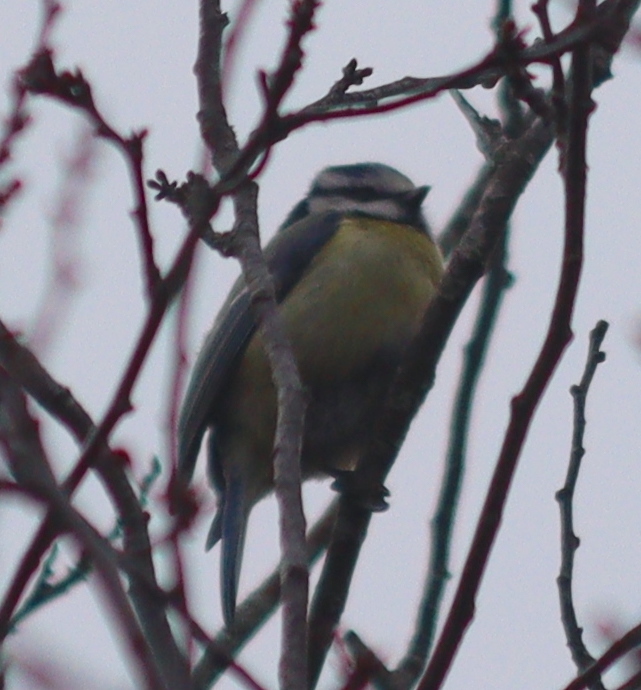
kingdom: Animalia
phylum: Chordata
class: Aves
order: Passeriformes
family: Paridae
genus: Cyanistes
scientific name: Cyanistes caeruleus
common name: Eurasian blue tit
